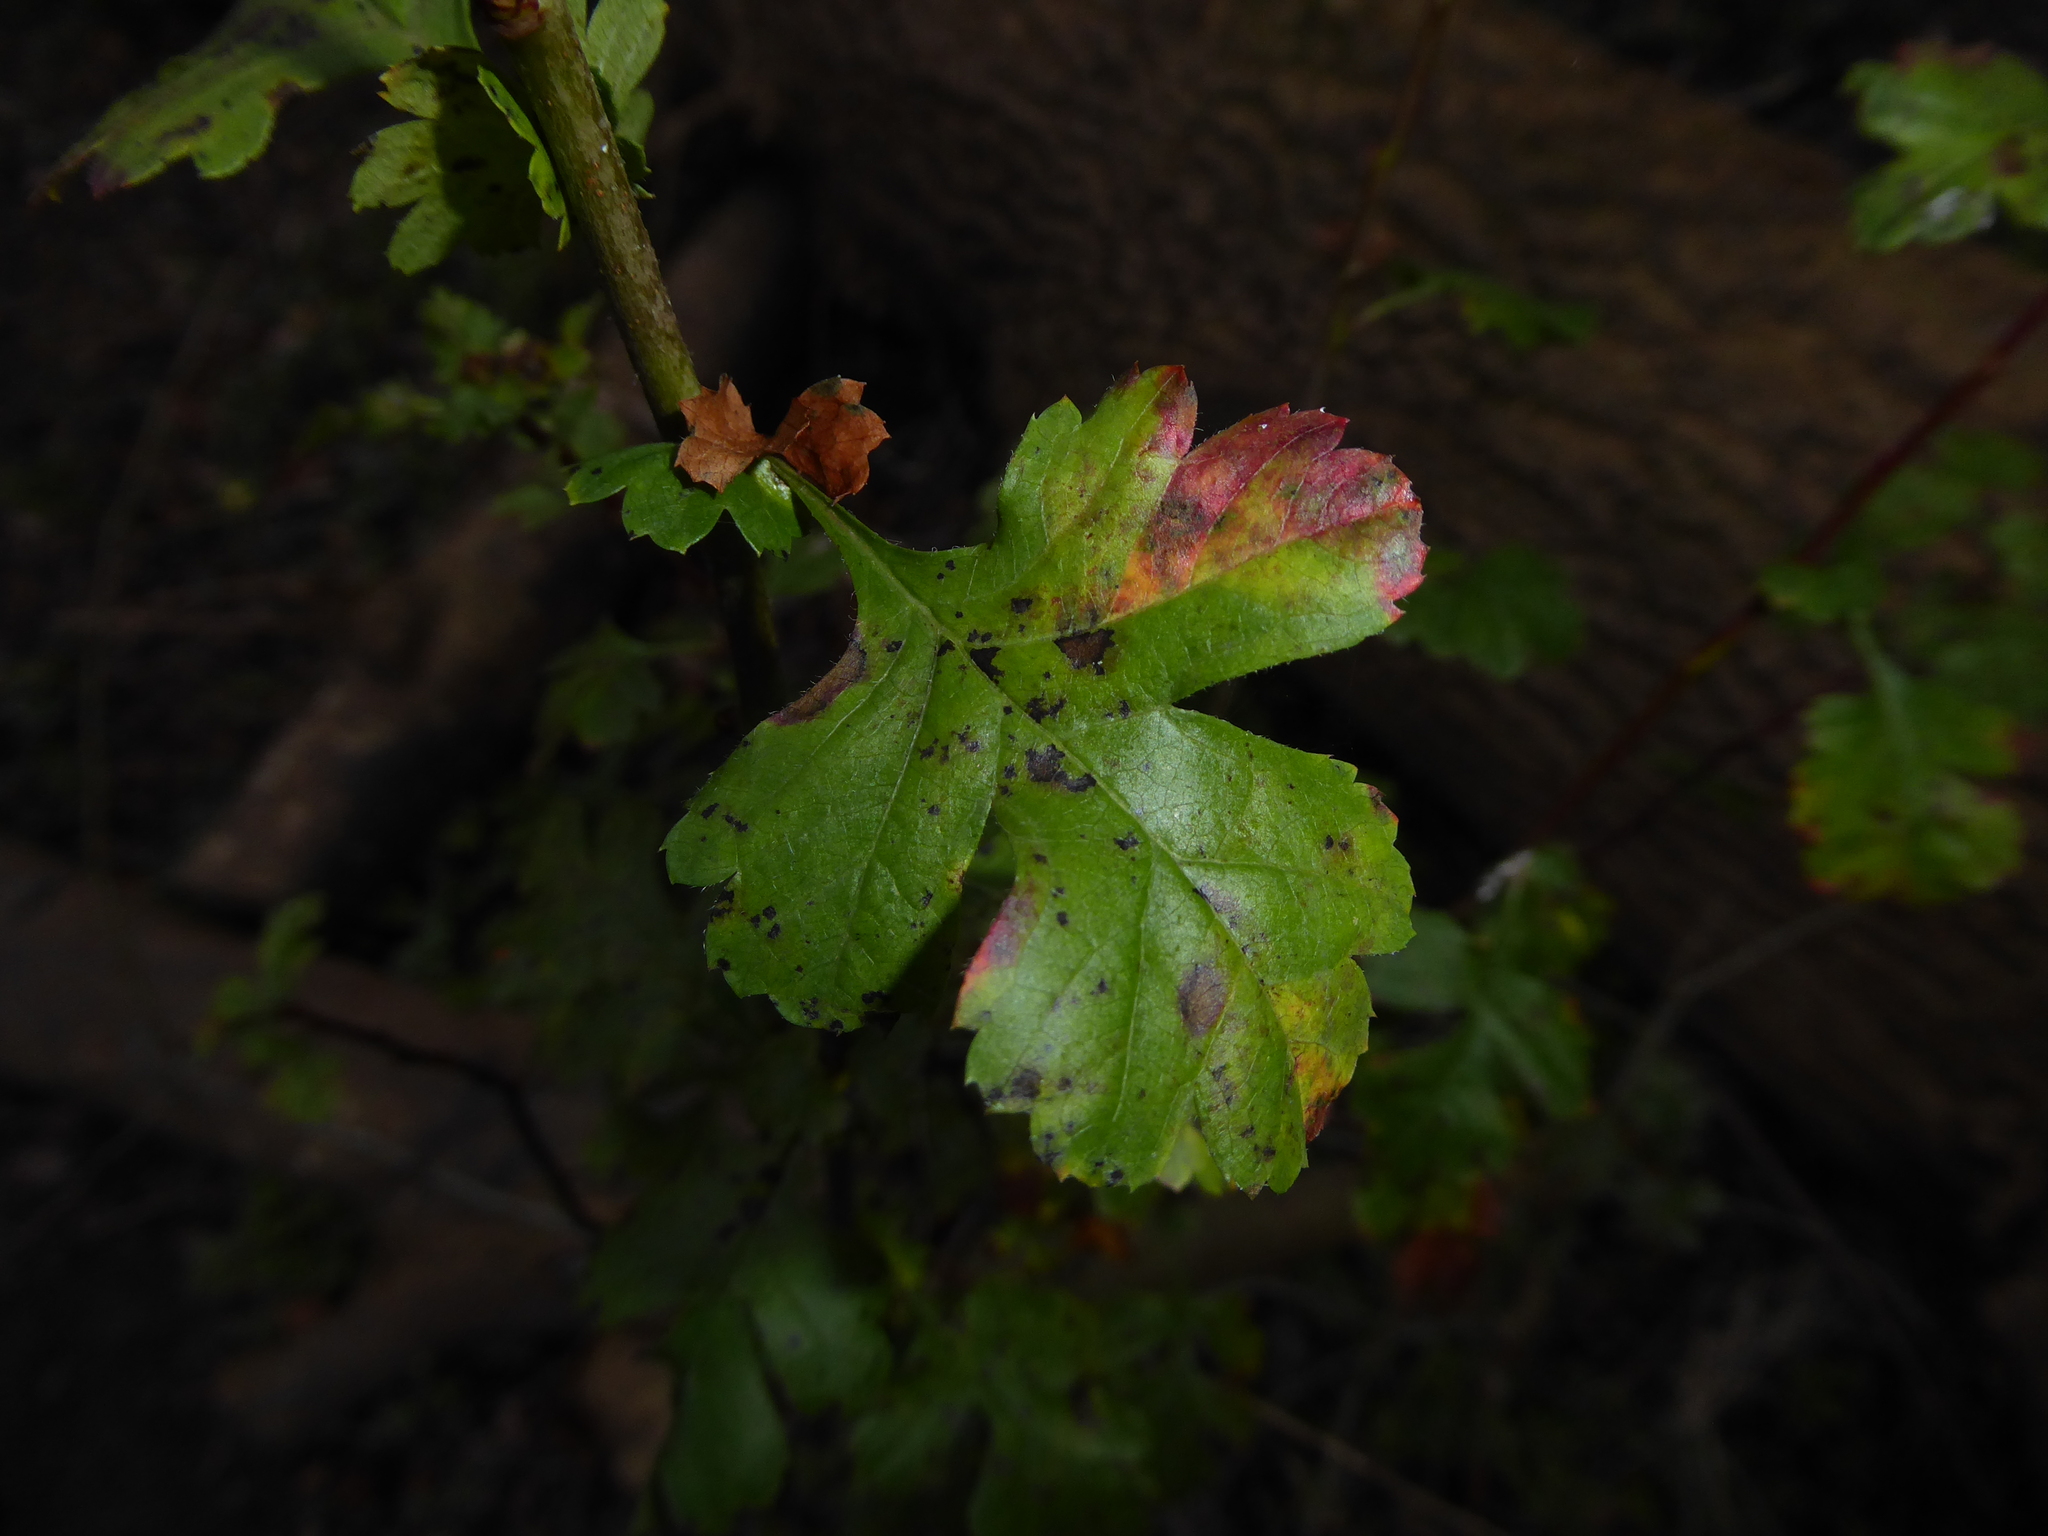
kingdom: Plantae
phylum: Tracheophyta
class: Magnoliopsida
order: Rosales
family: Rosaceae
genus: Crataegus
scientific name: Crataegus monogyna
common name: Hawthorn
